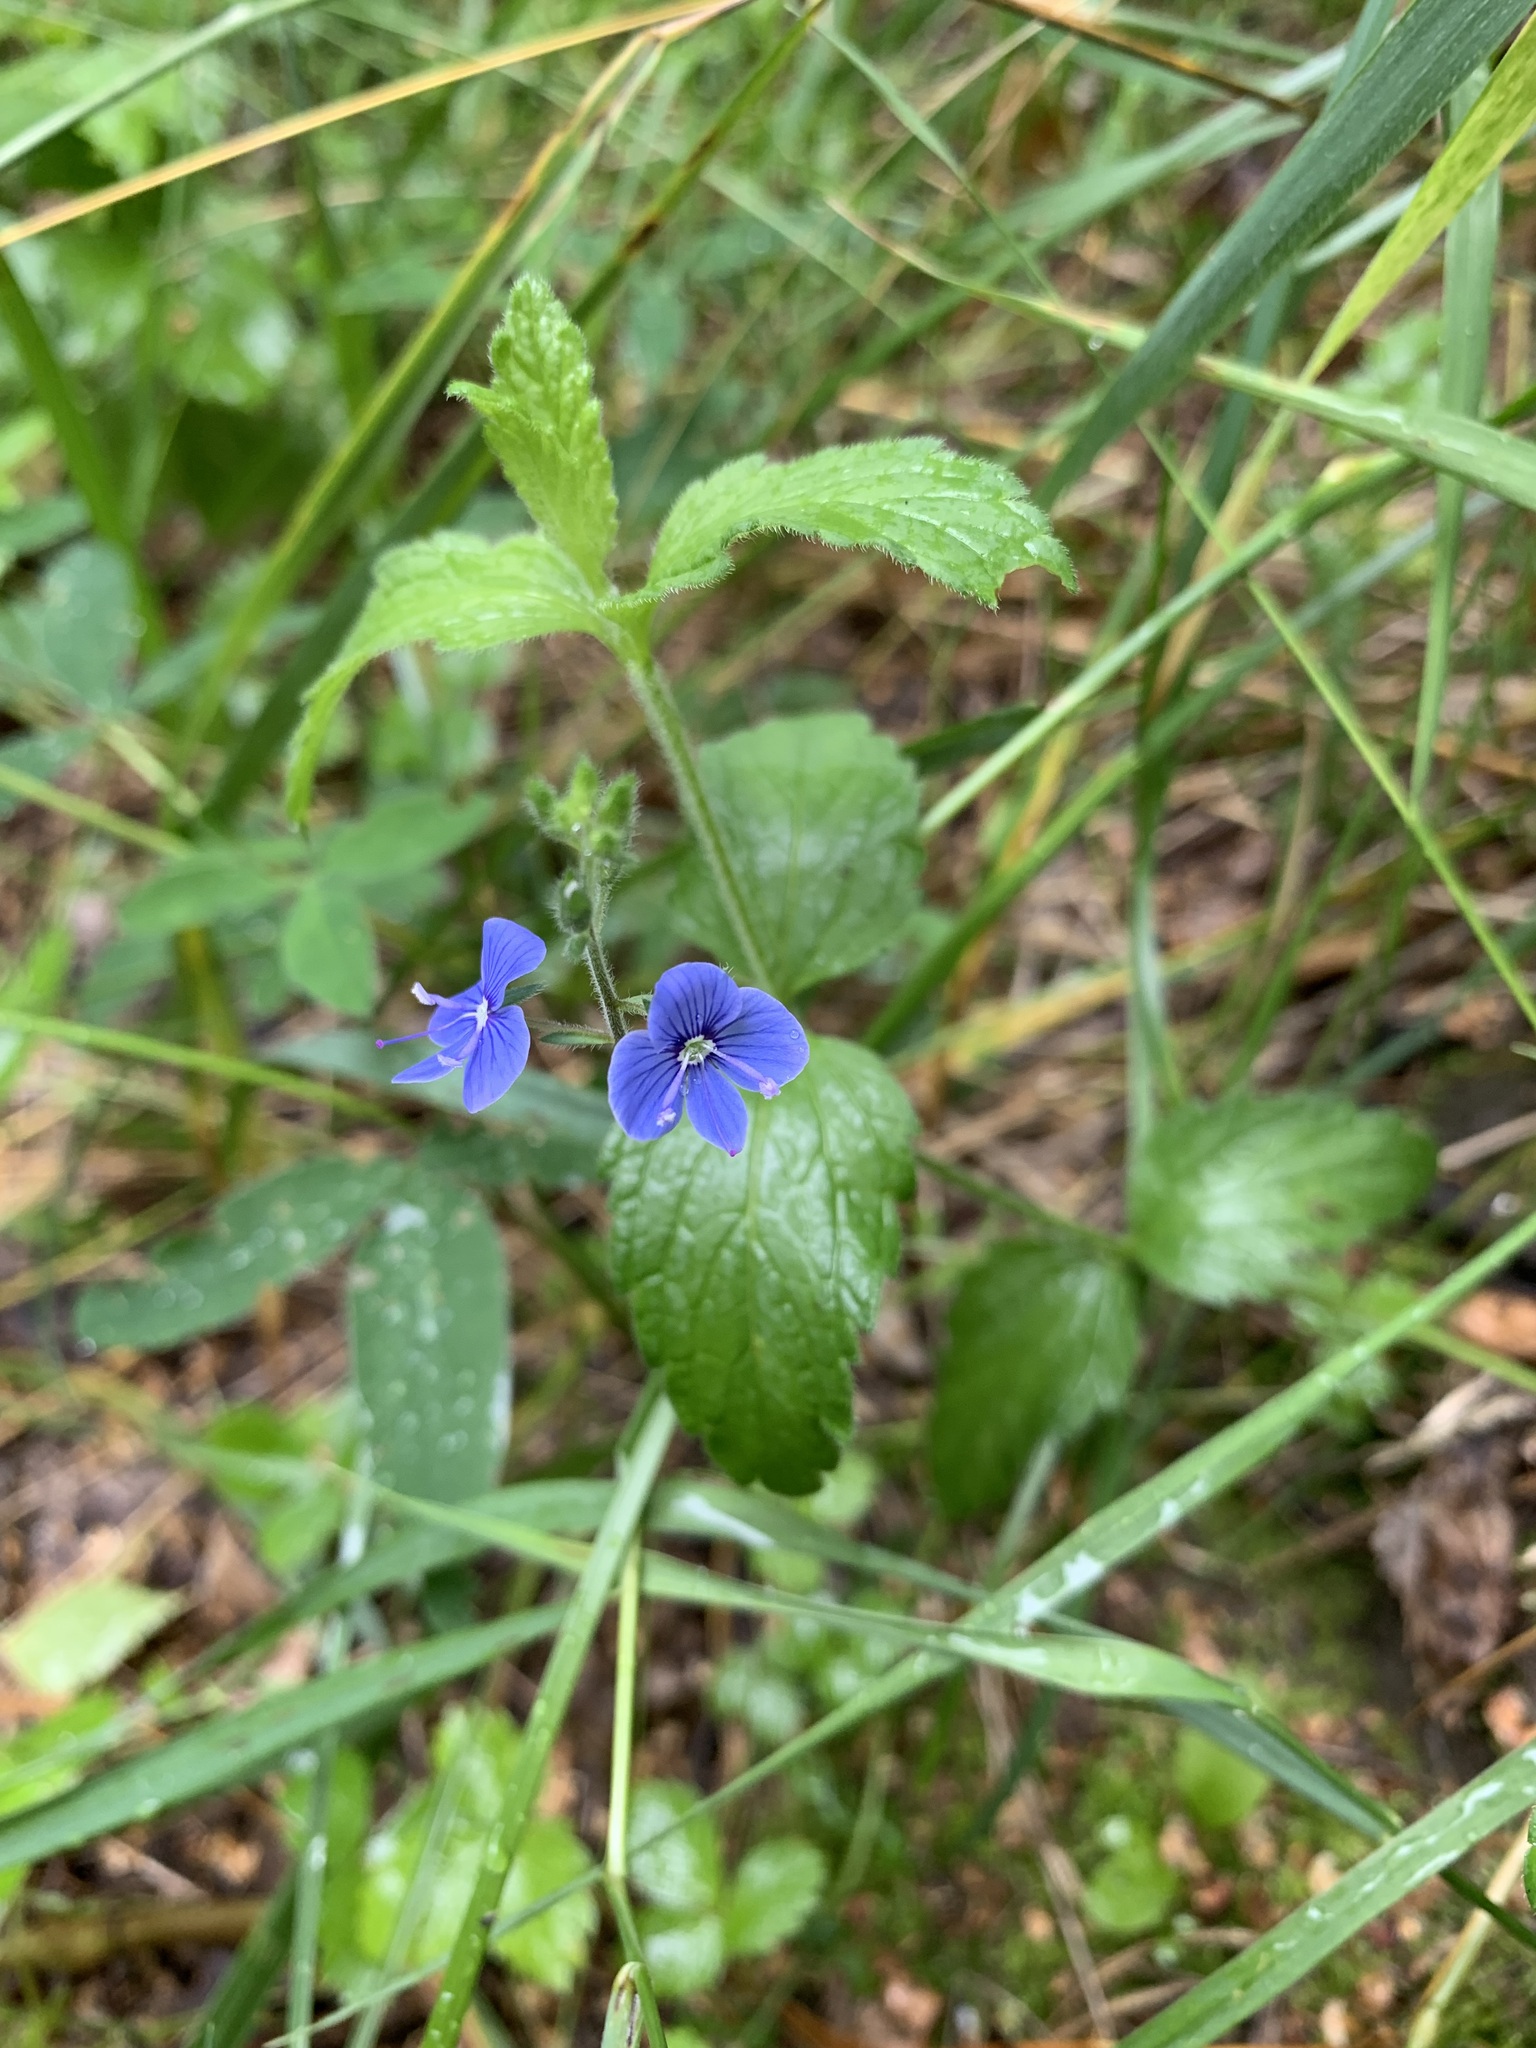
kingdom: Plantae
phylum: Tracheophyta
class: Magnoliopsida
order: Lamiales
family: Plantaginaceae
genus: Veronica
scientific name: Veronica chamaedrys
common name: Germander speedwell
